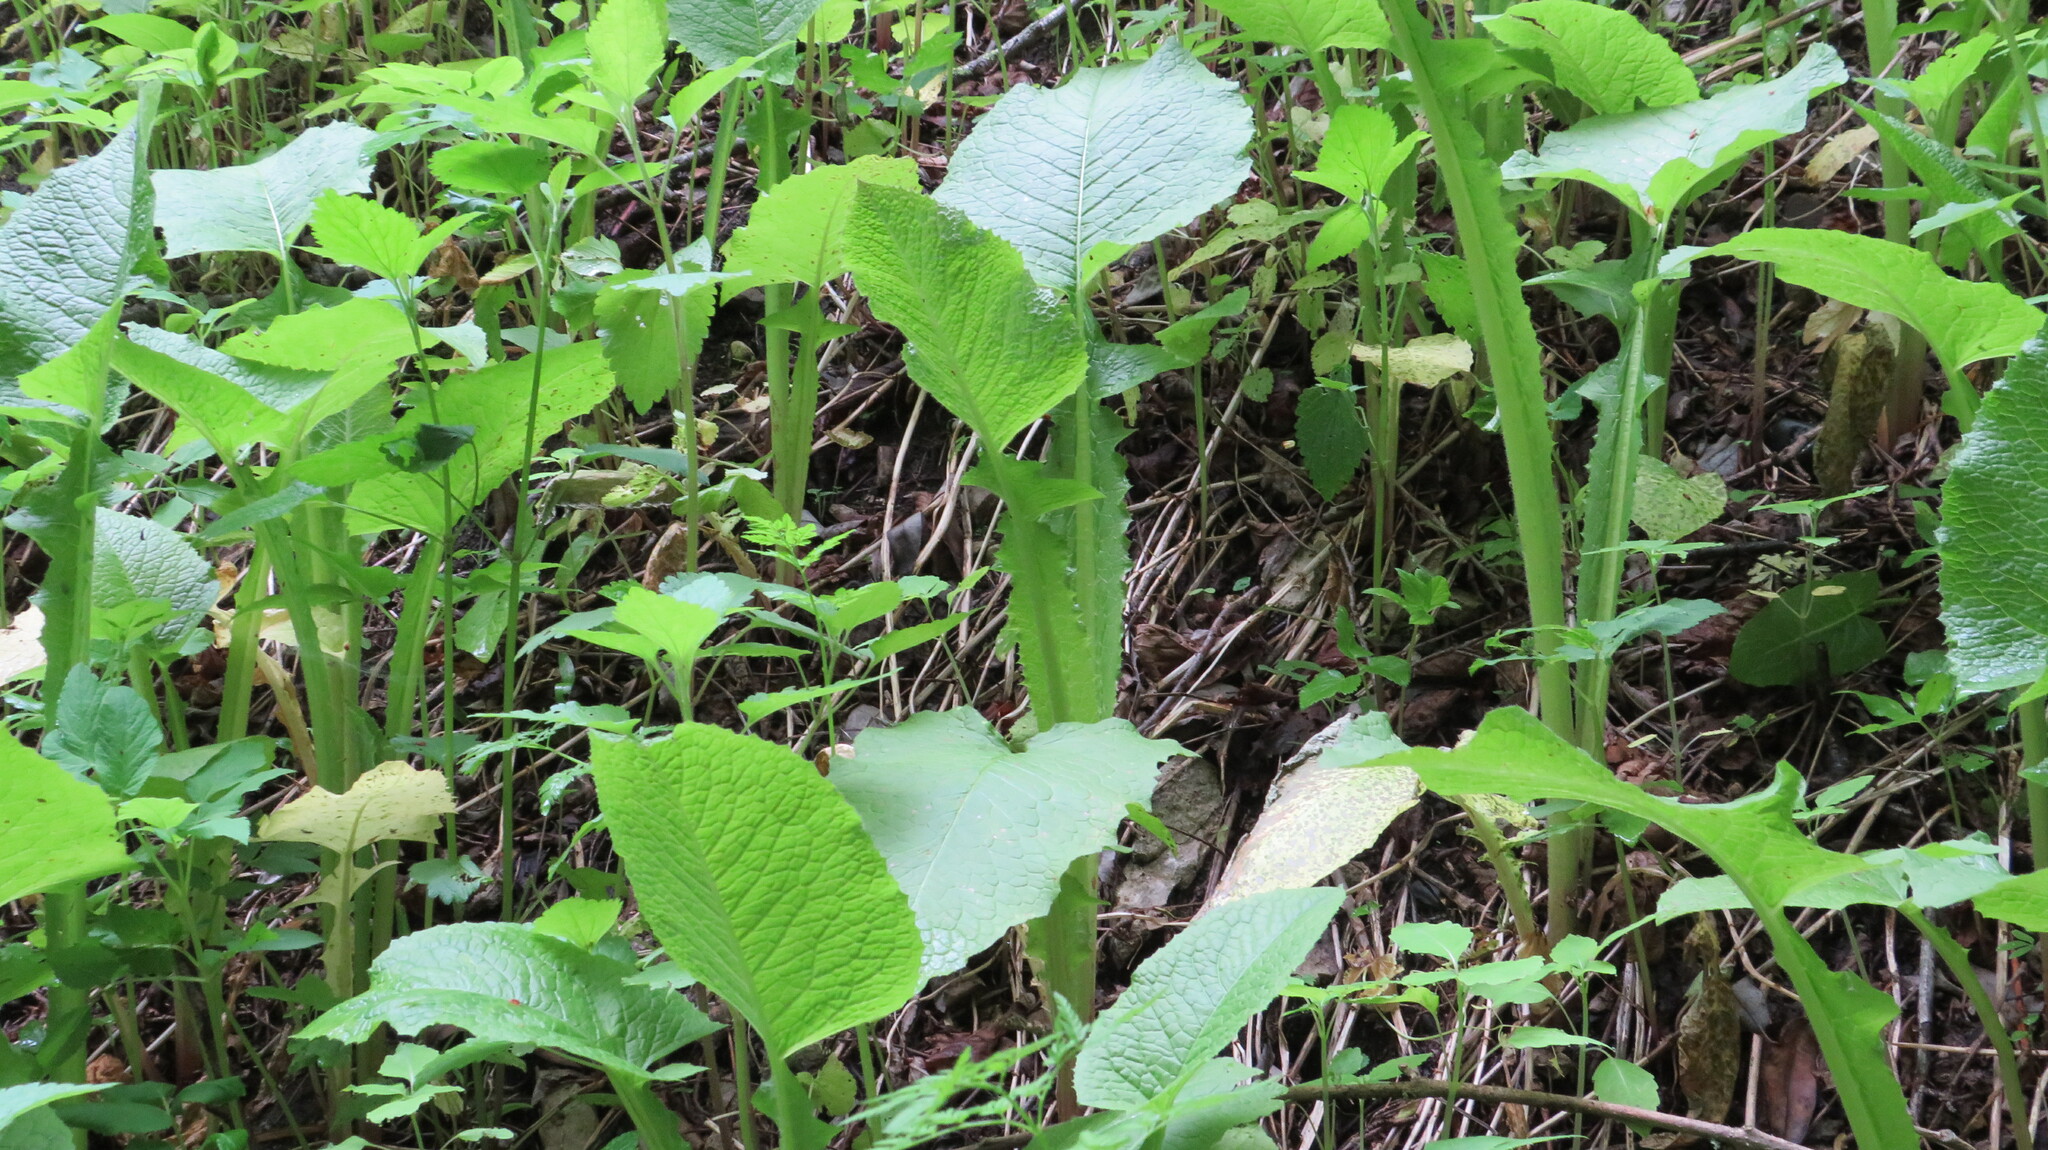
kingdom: Plantae
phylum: Tracheophyta
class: Magnoliopsida
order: Asterales
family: Asteraceae
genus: Lactuca
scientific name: Lactuca macrophylla
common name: Common blue-sow-thistle
